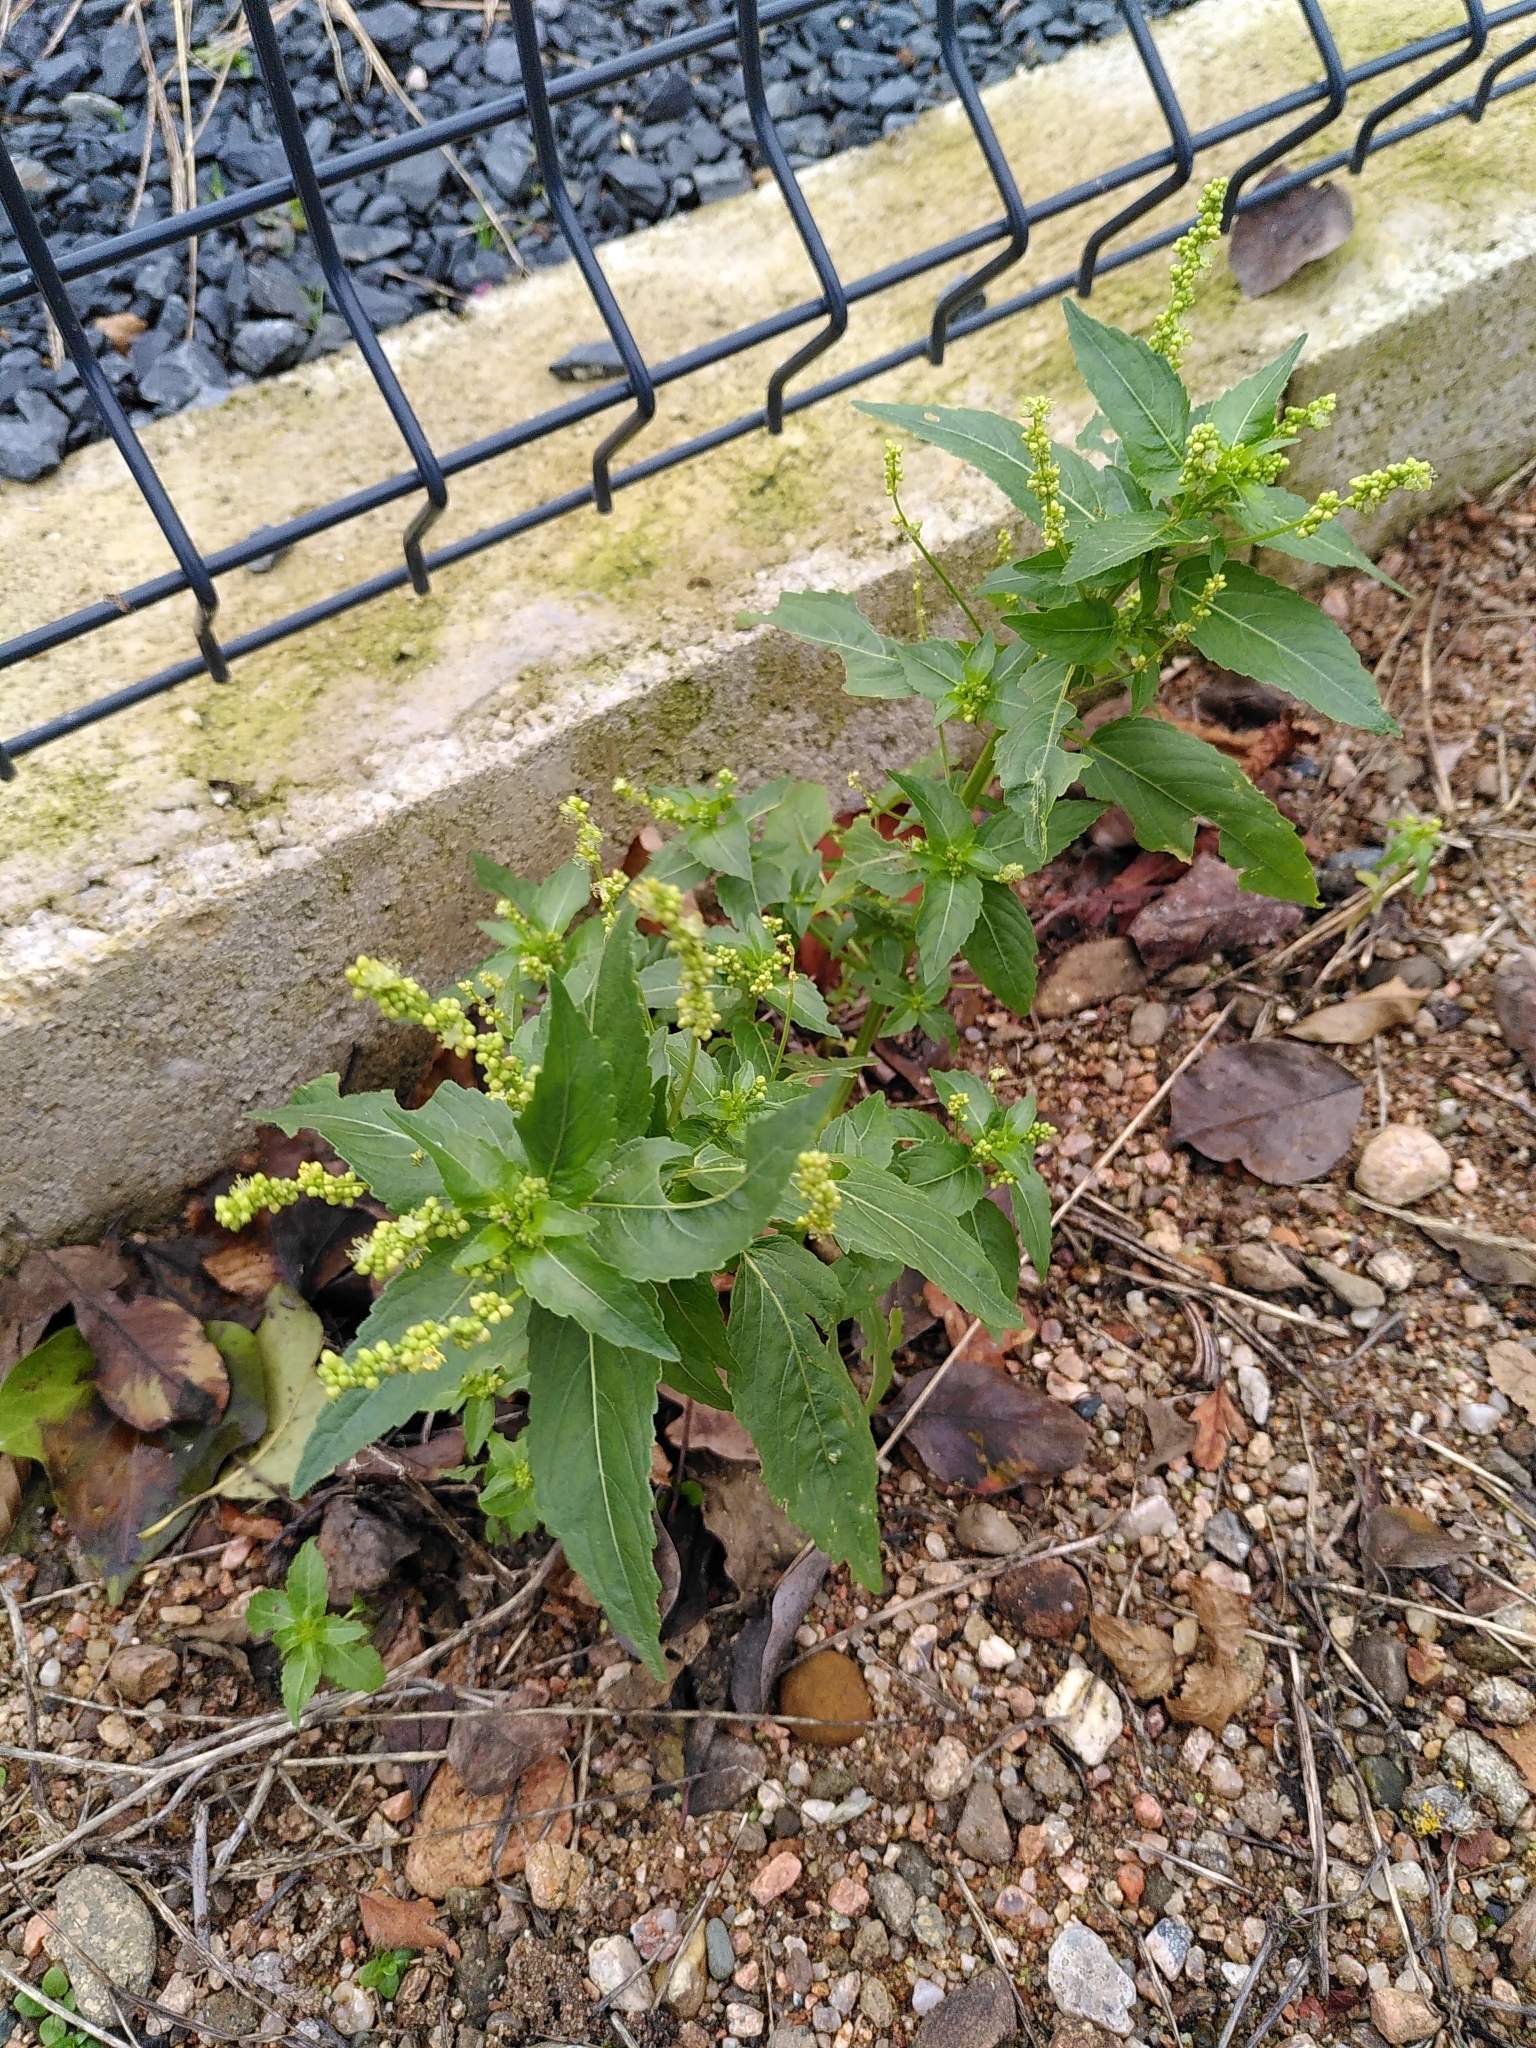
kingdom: Plantae
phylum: Tracheophyta
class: Magnoliopsida
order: Malpighiales
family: Euphorbiaceae
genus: Mercurialis
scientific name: Mercurialis annua
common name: Annual mercury
